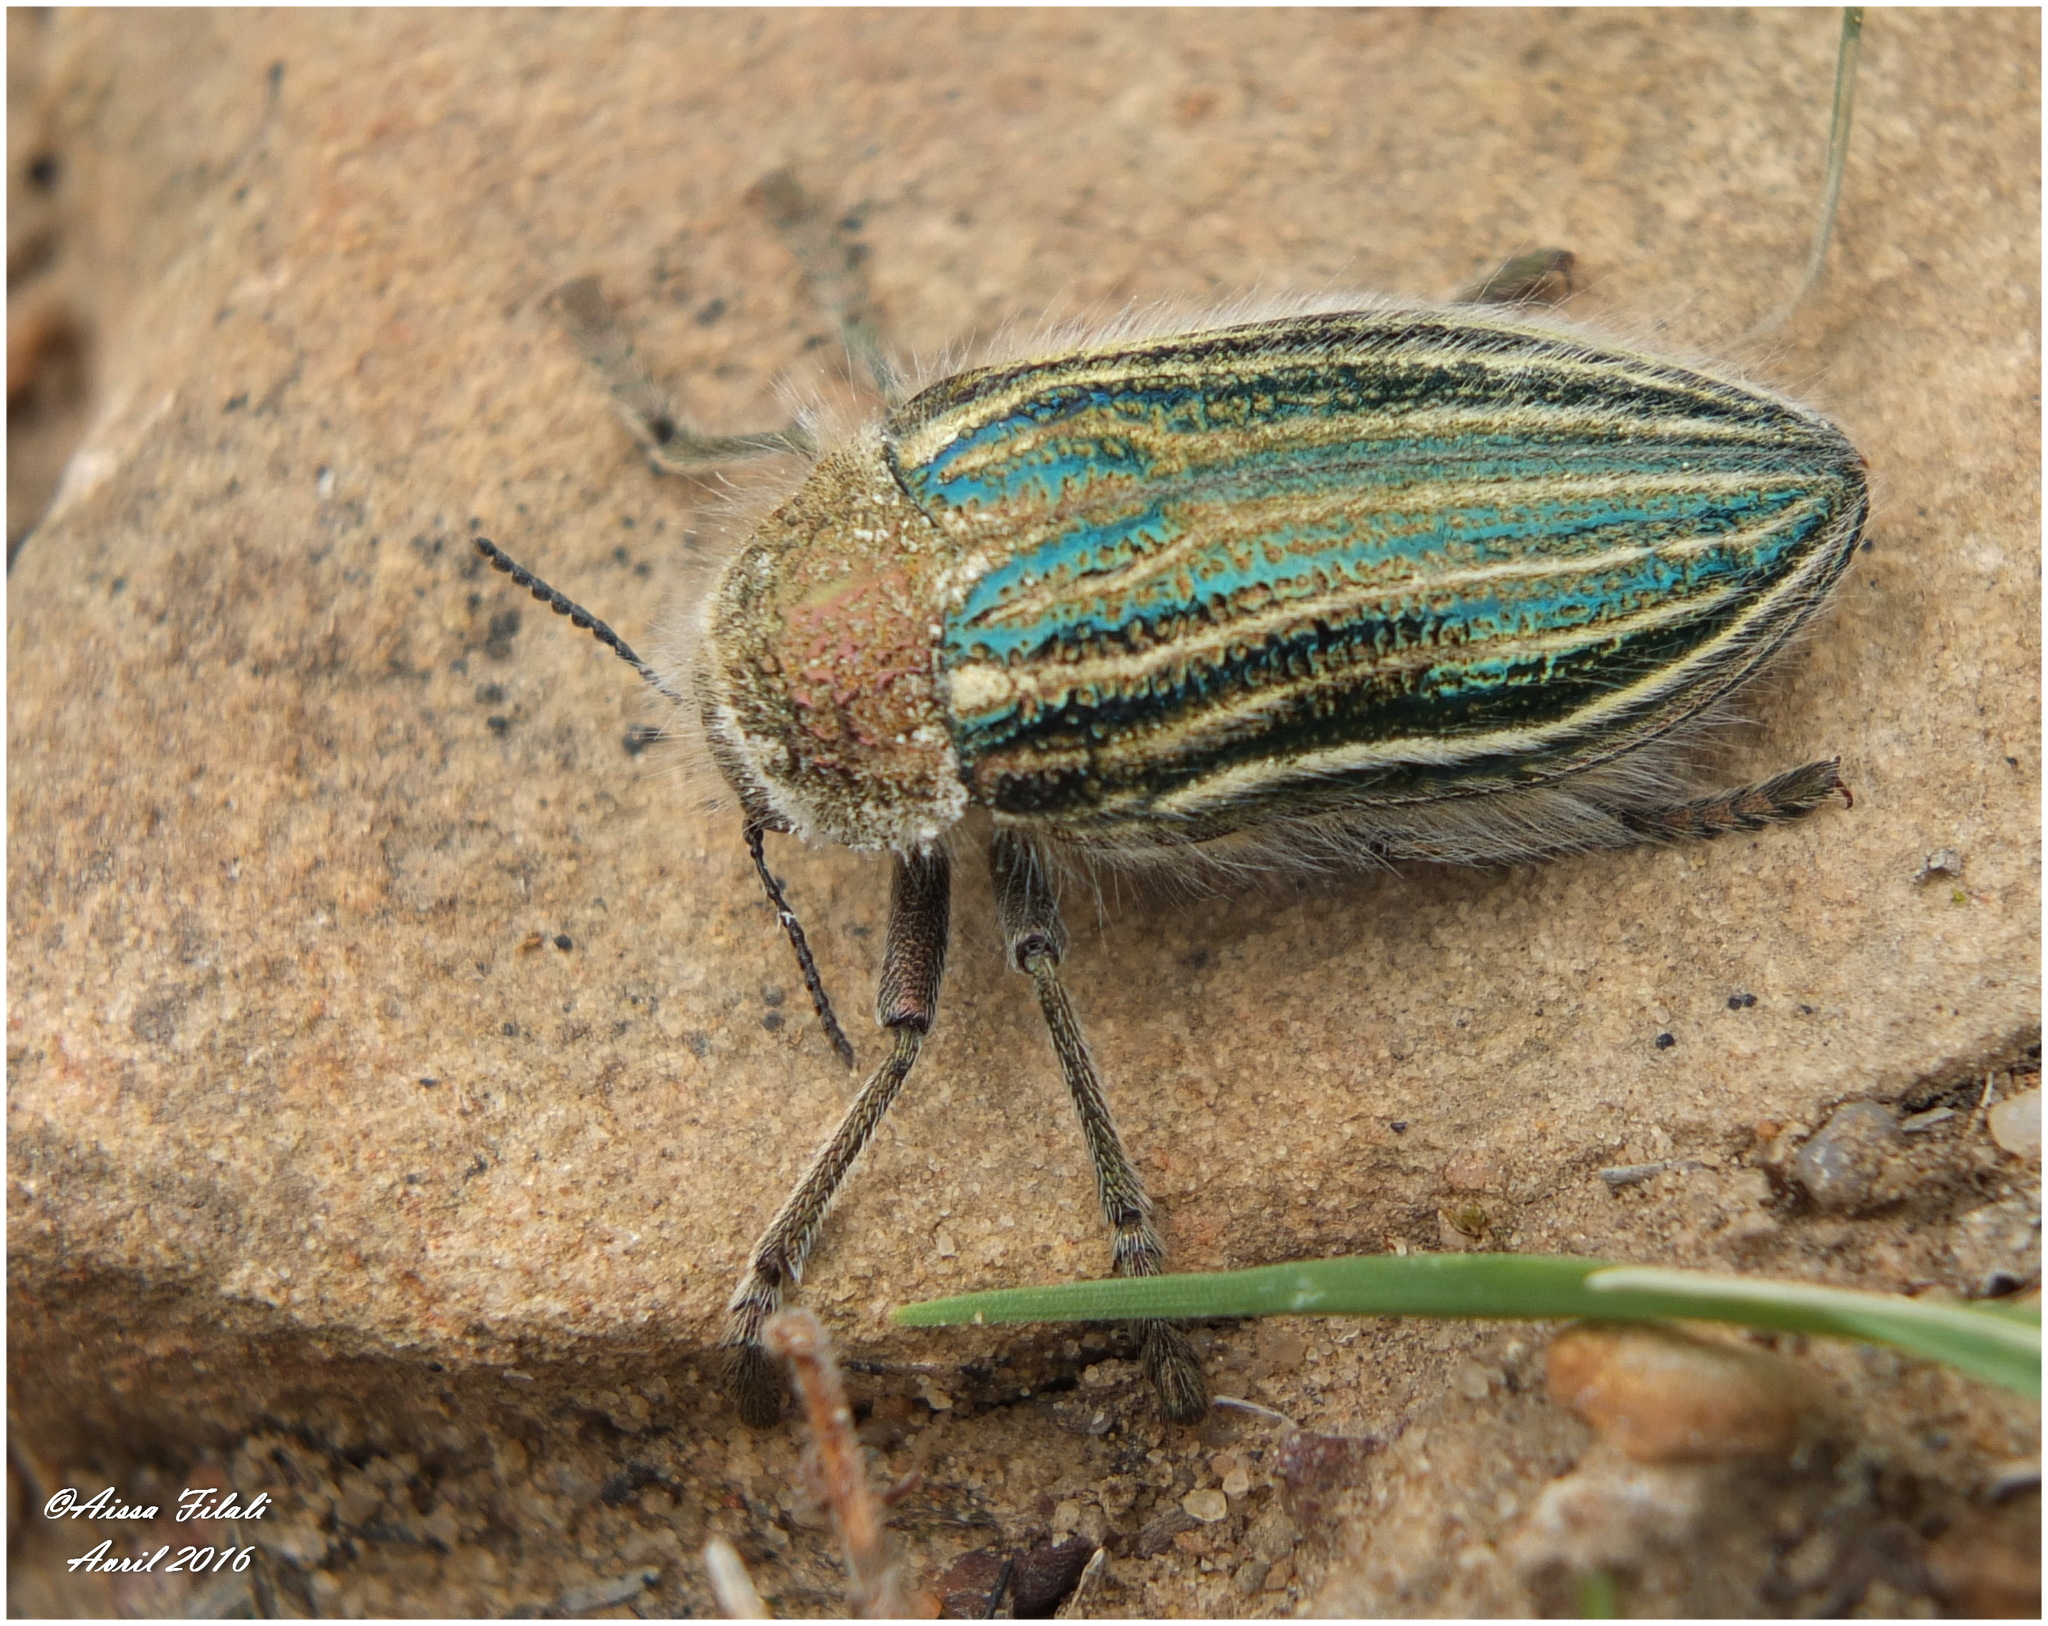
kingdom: Animalia
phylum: Arthropoda
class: Insecta
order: Coleoptera
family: Buprestidae
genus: Julodis
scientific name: Julodis pilosa
